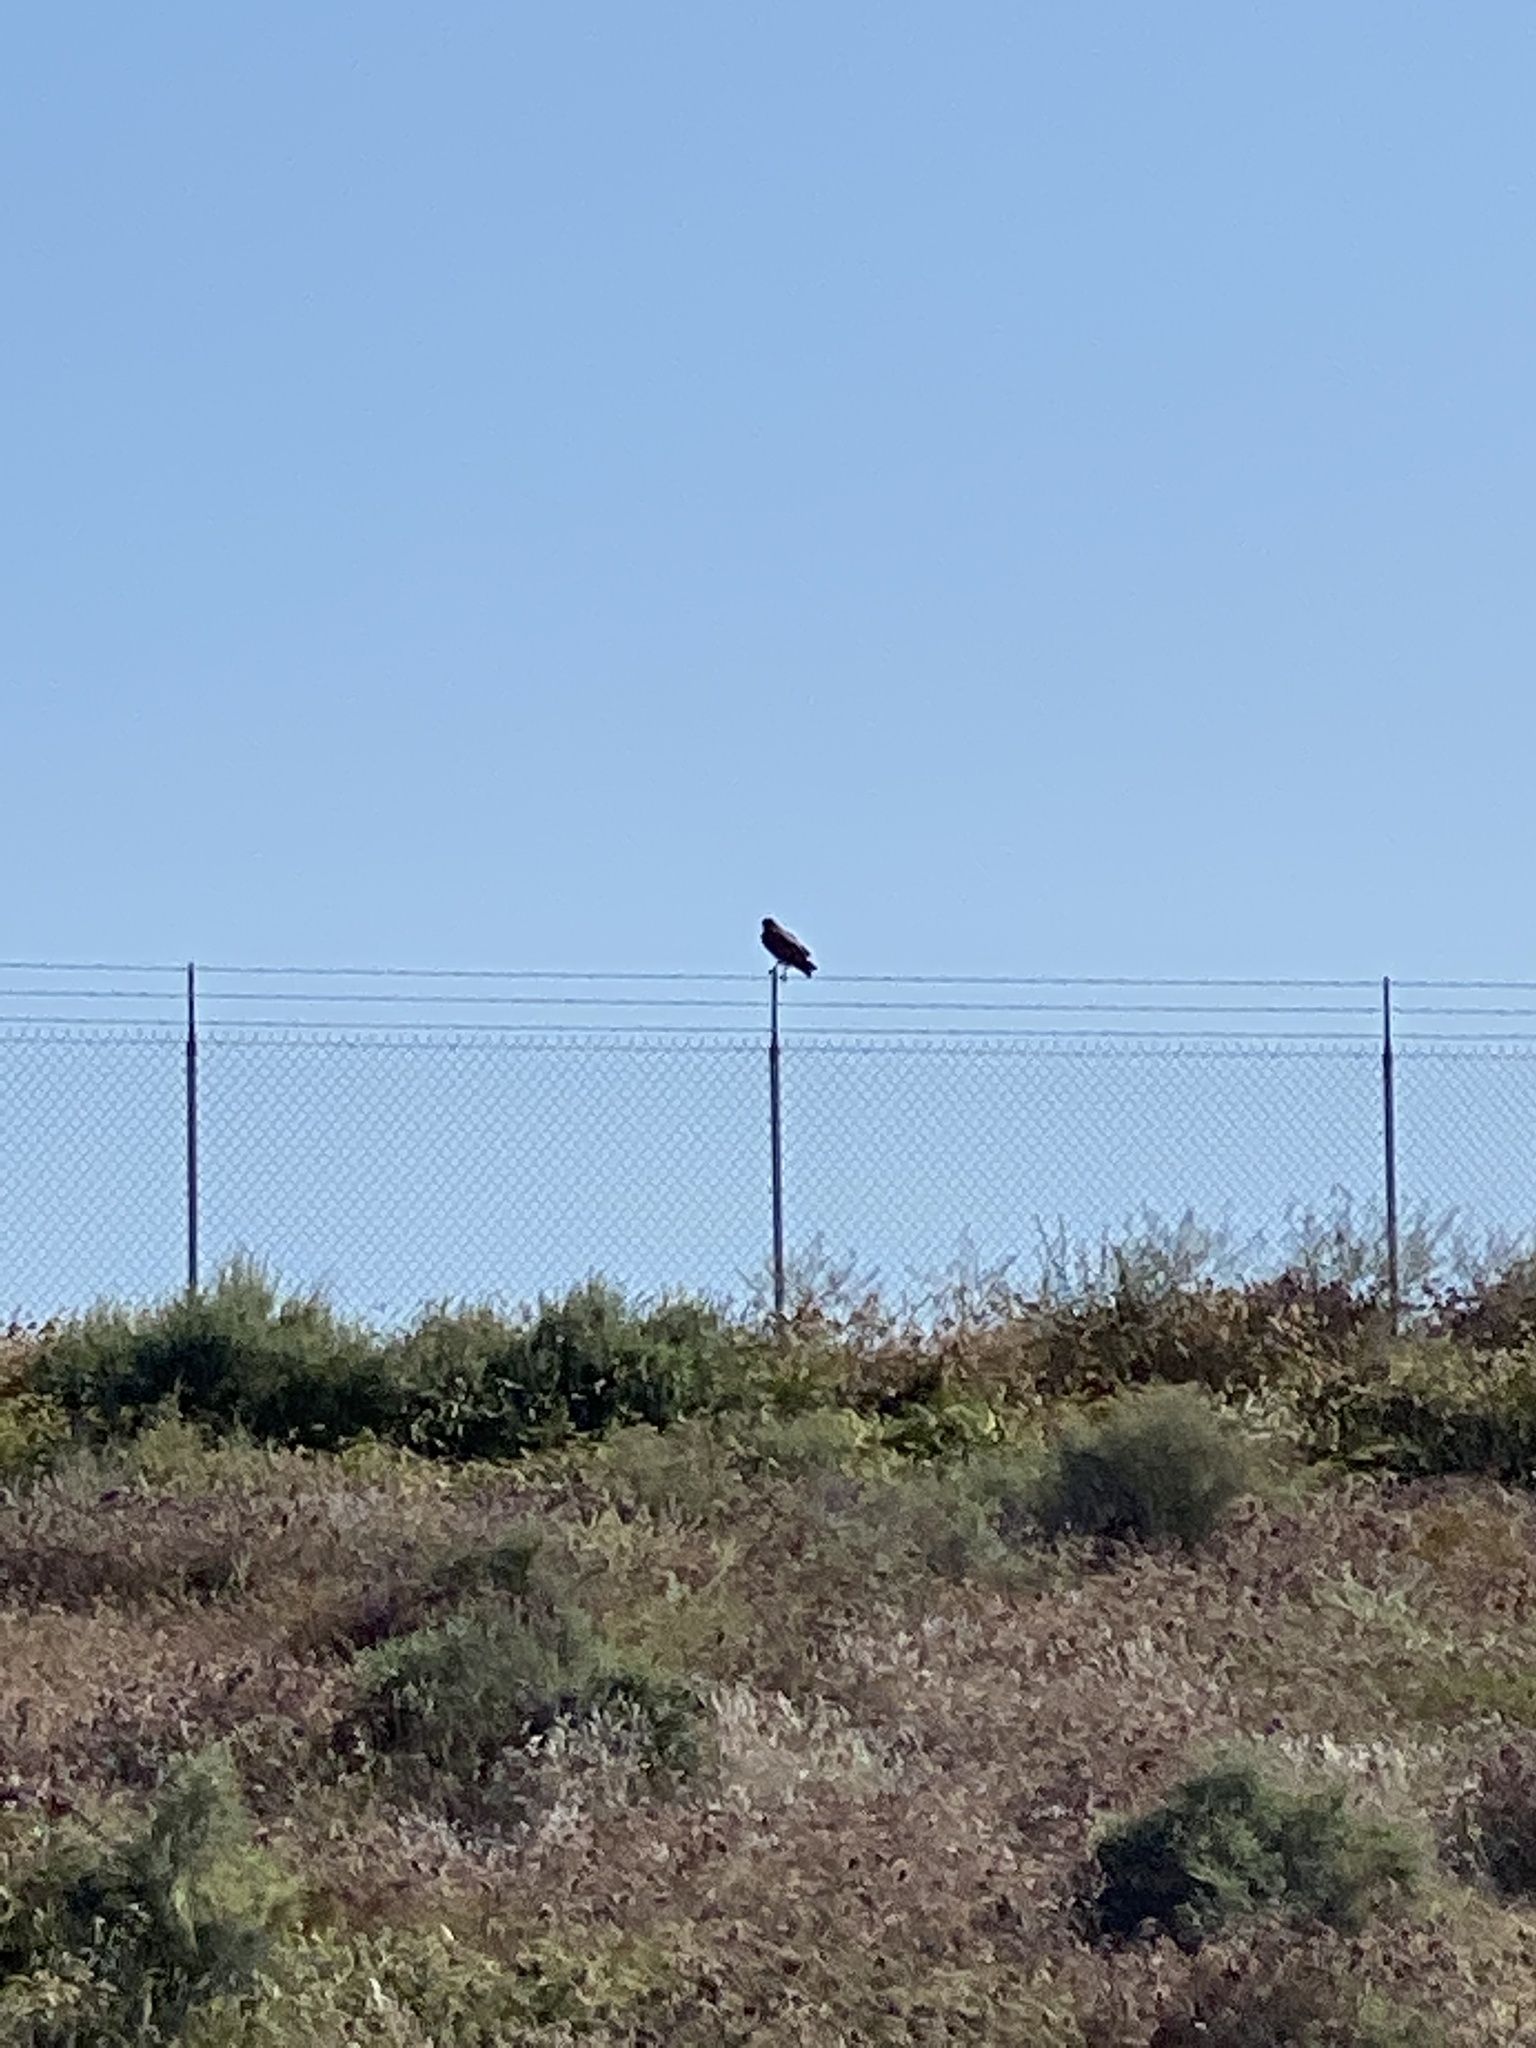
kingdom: Animalia
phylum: Chordata
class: Aves
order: Accipitriformes
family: Accipitridae
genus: Buteo
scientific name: Buteo
